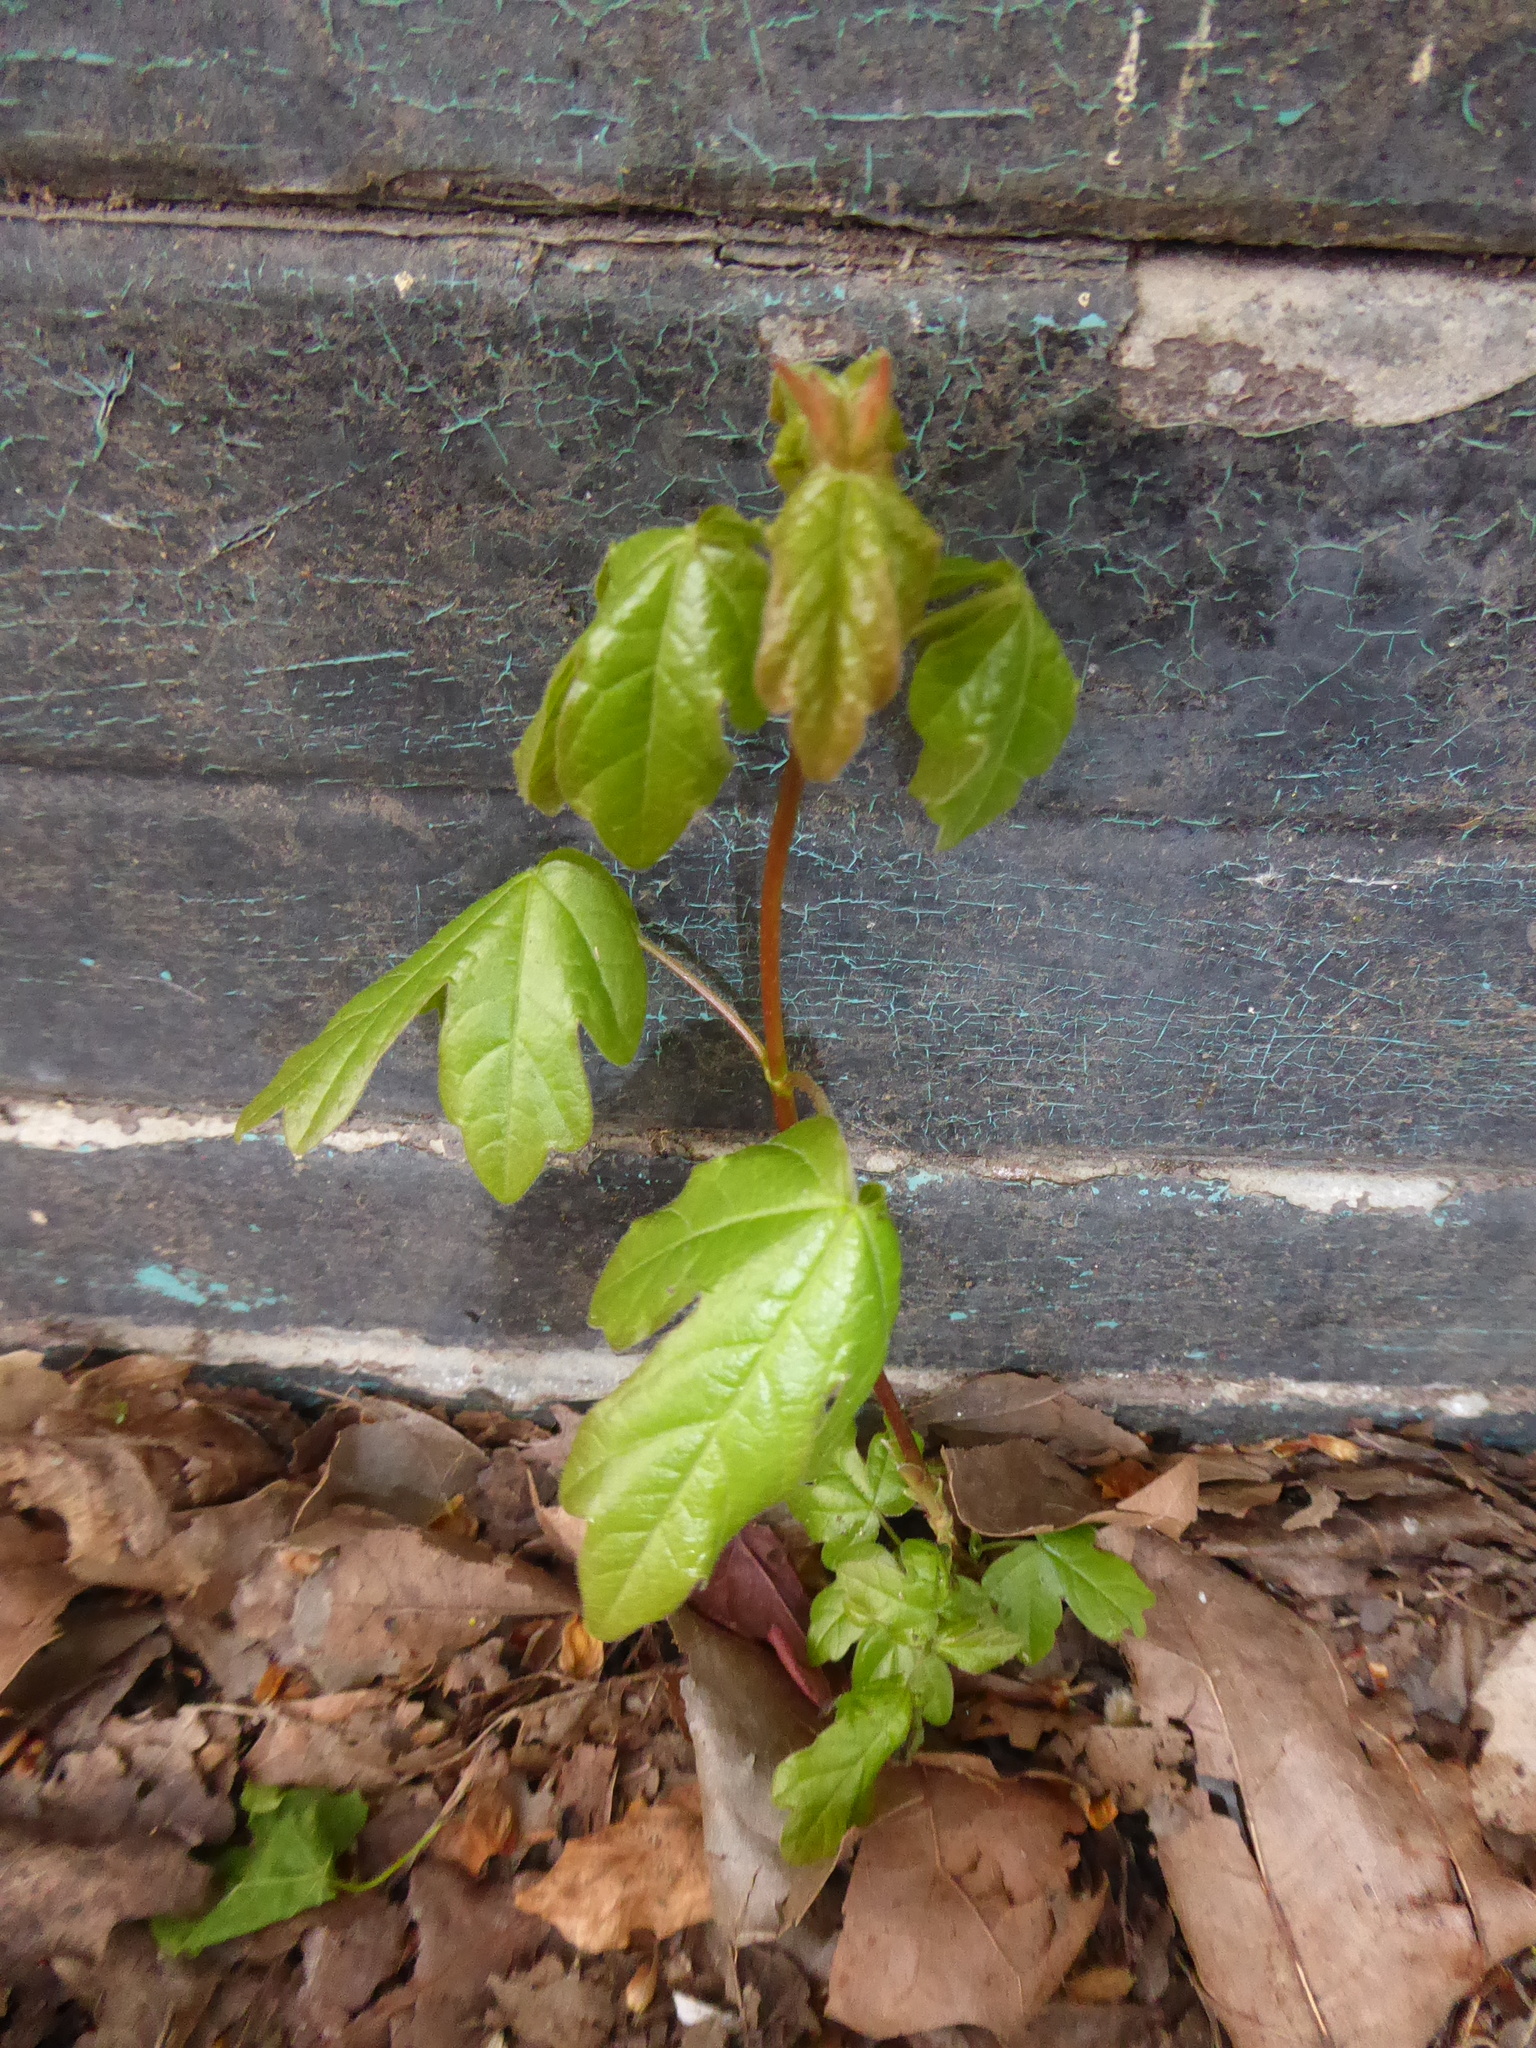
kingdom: Plantae
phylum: Tracheophyta
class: Magnoliopsida
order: Sapindales
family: Sapindaceae
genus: Acer
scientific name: Acer campestre
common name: Field maple
